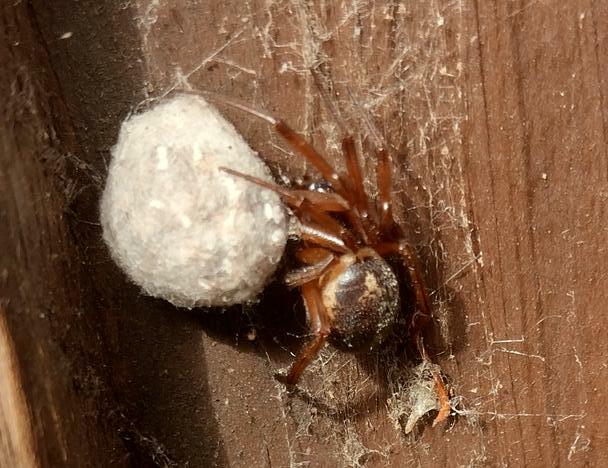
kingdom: Animalia
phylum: Arthropoda
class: Arachnida
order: Araneae
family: Theridiidae
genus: Steatoda
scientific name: Steatoda nobilis
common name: Cobweb weaver
